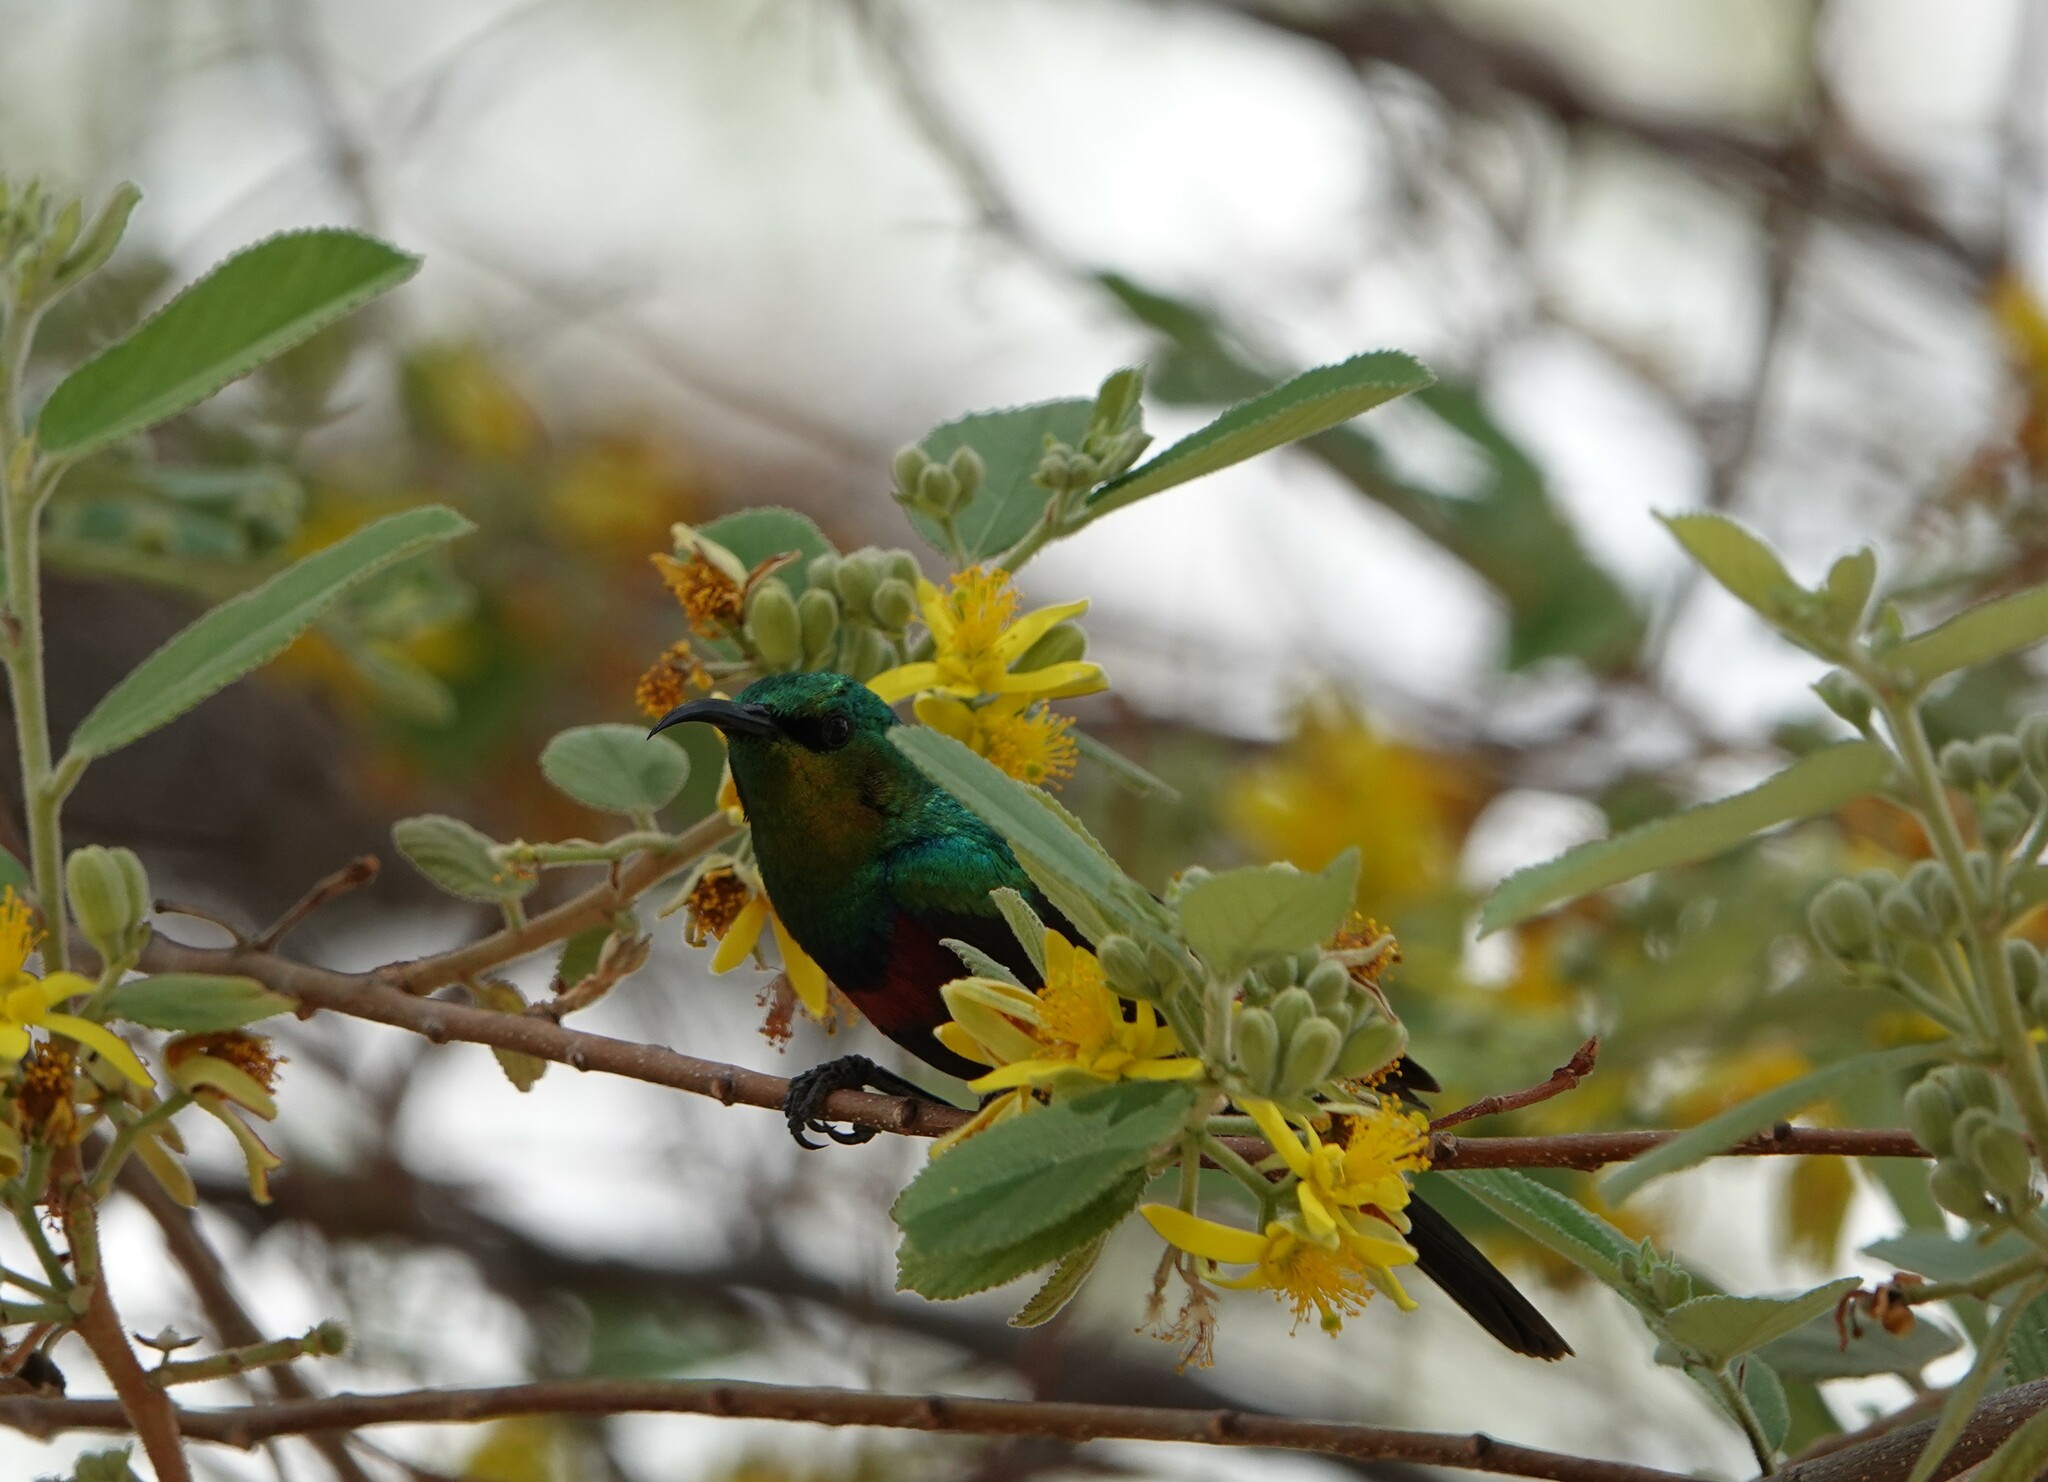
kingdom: Animalia
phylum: Chordata
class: Aves
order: Passeriformes
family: Nectariniidae
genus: Cinnyris
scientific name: Cinnyris mariquensis
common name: Marico sunbird
